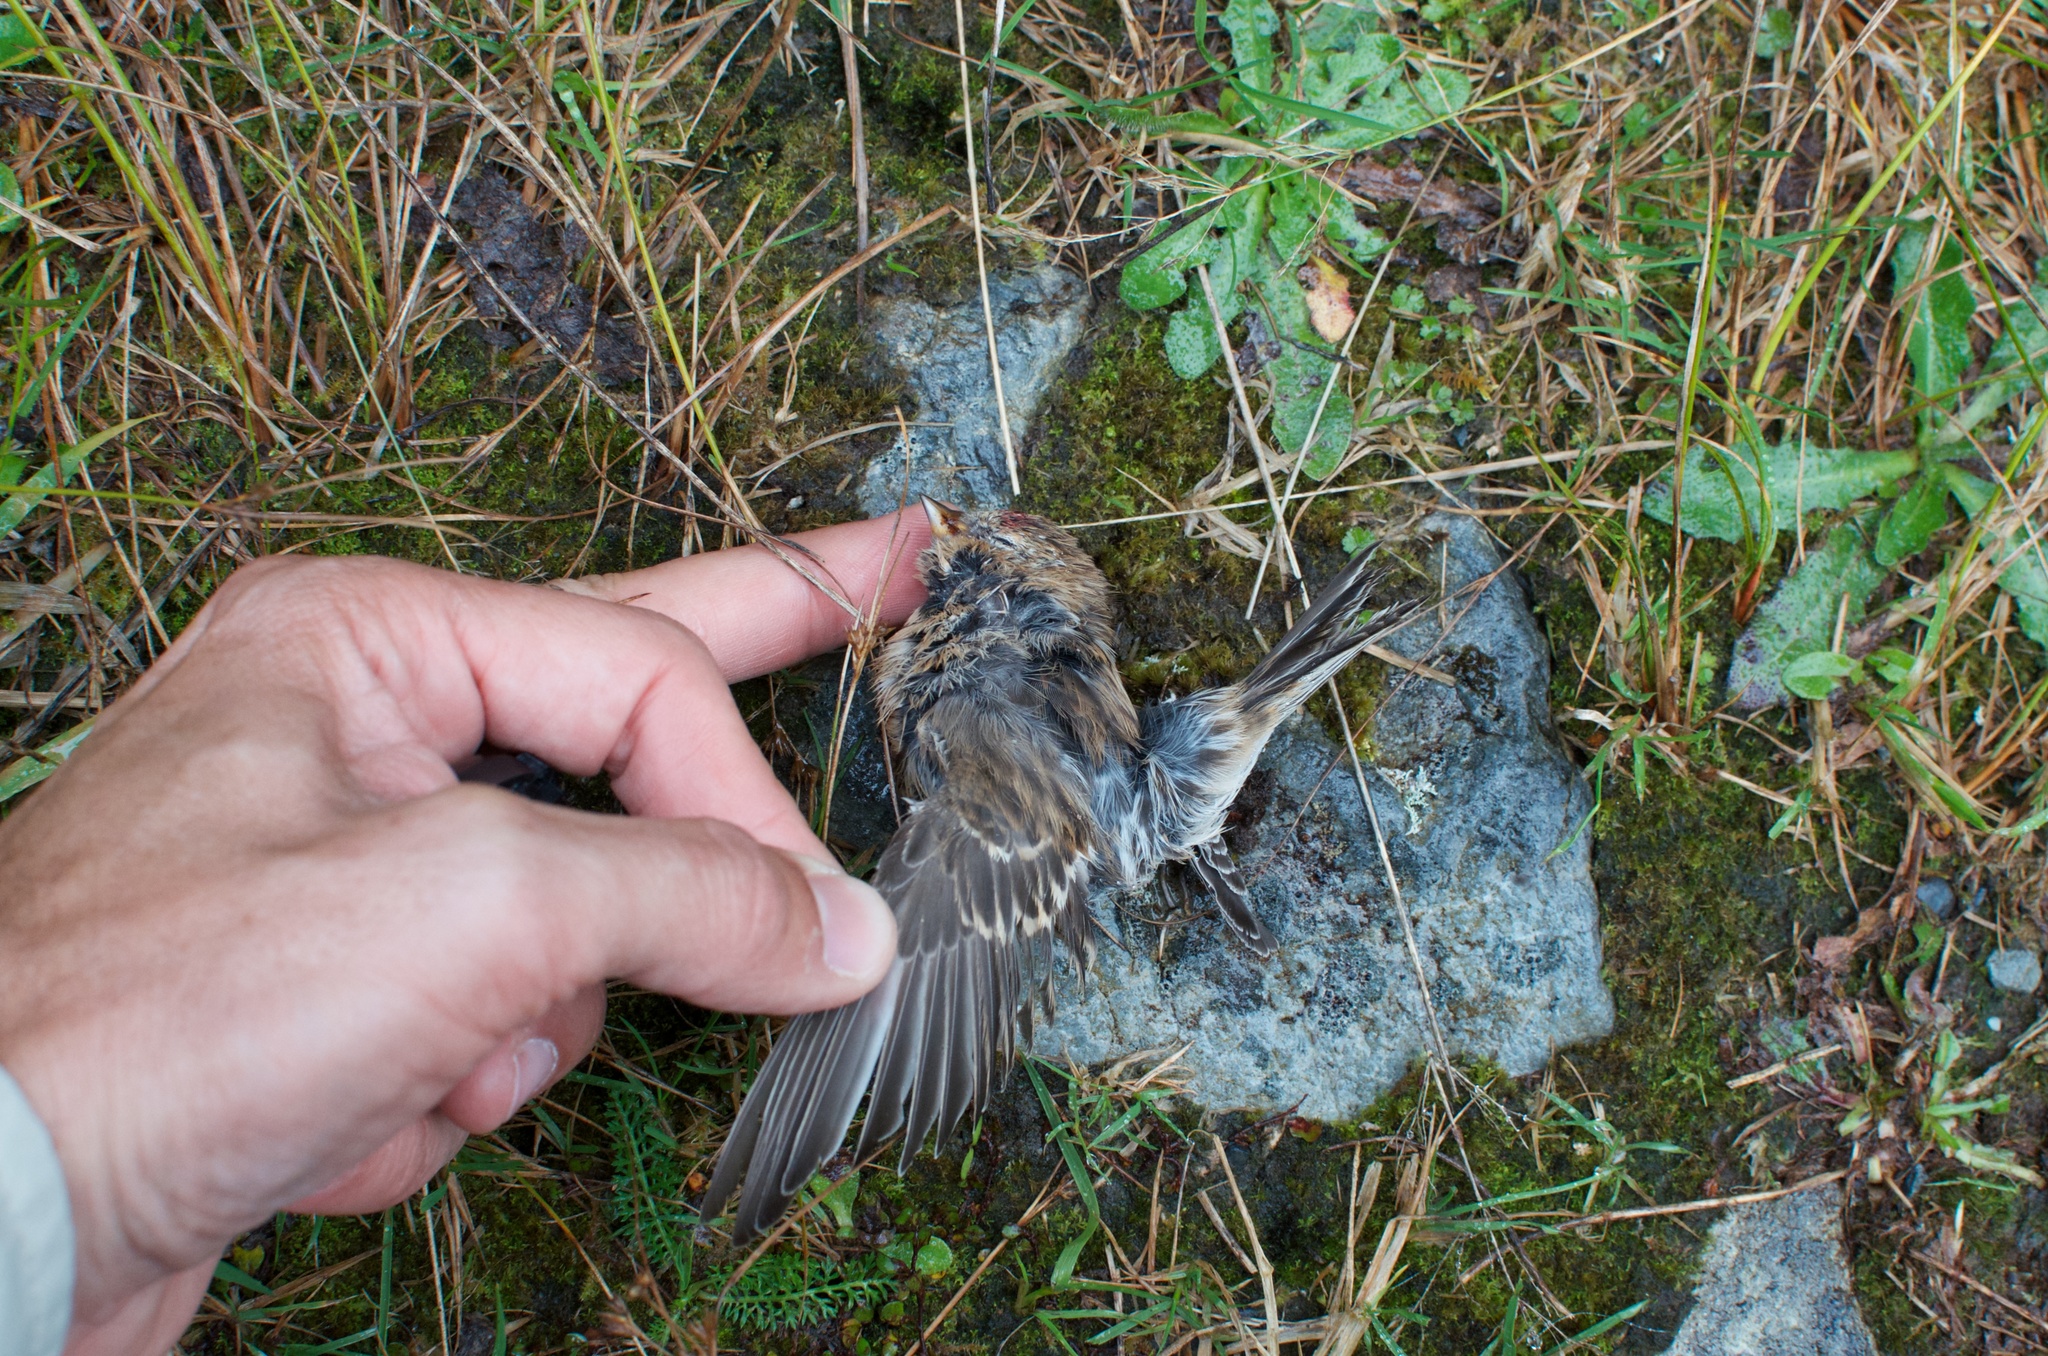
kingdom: Animalia
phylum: Chordata
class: Aves
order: Passeriformes
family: Fringillidae
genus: Acanthis
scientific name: Acanthis flammea
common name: Common redpoll
